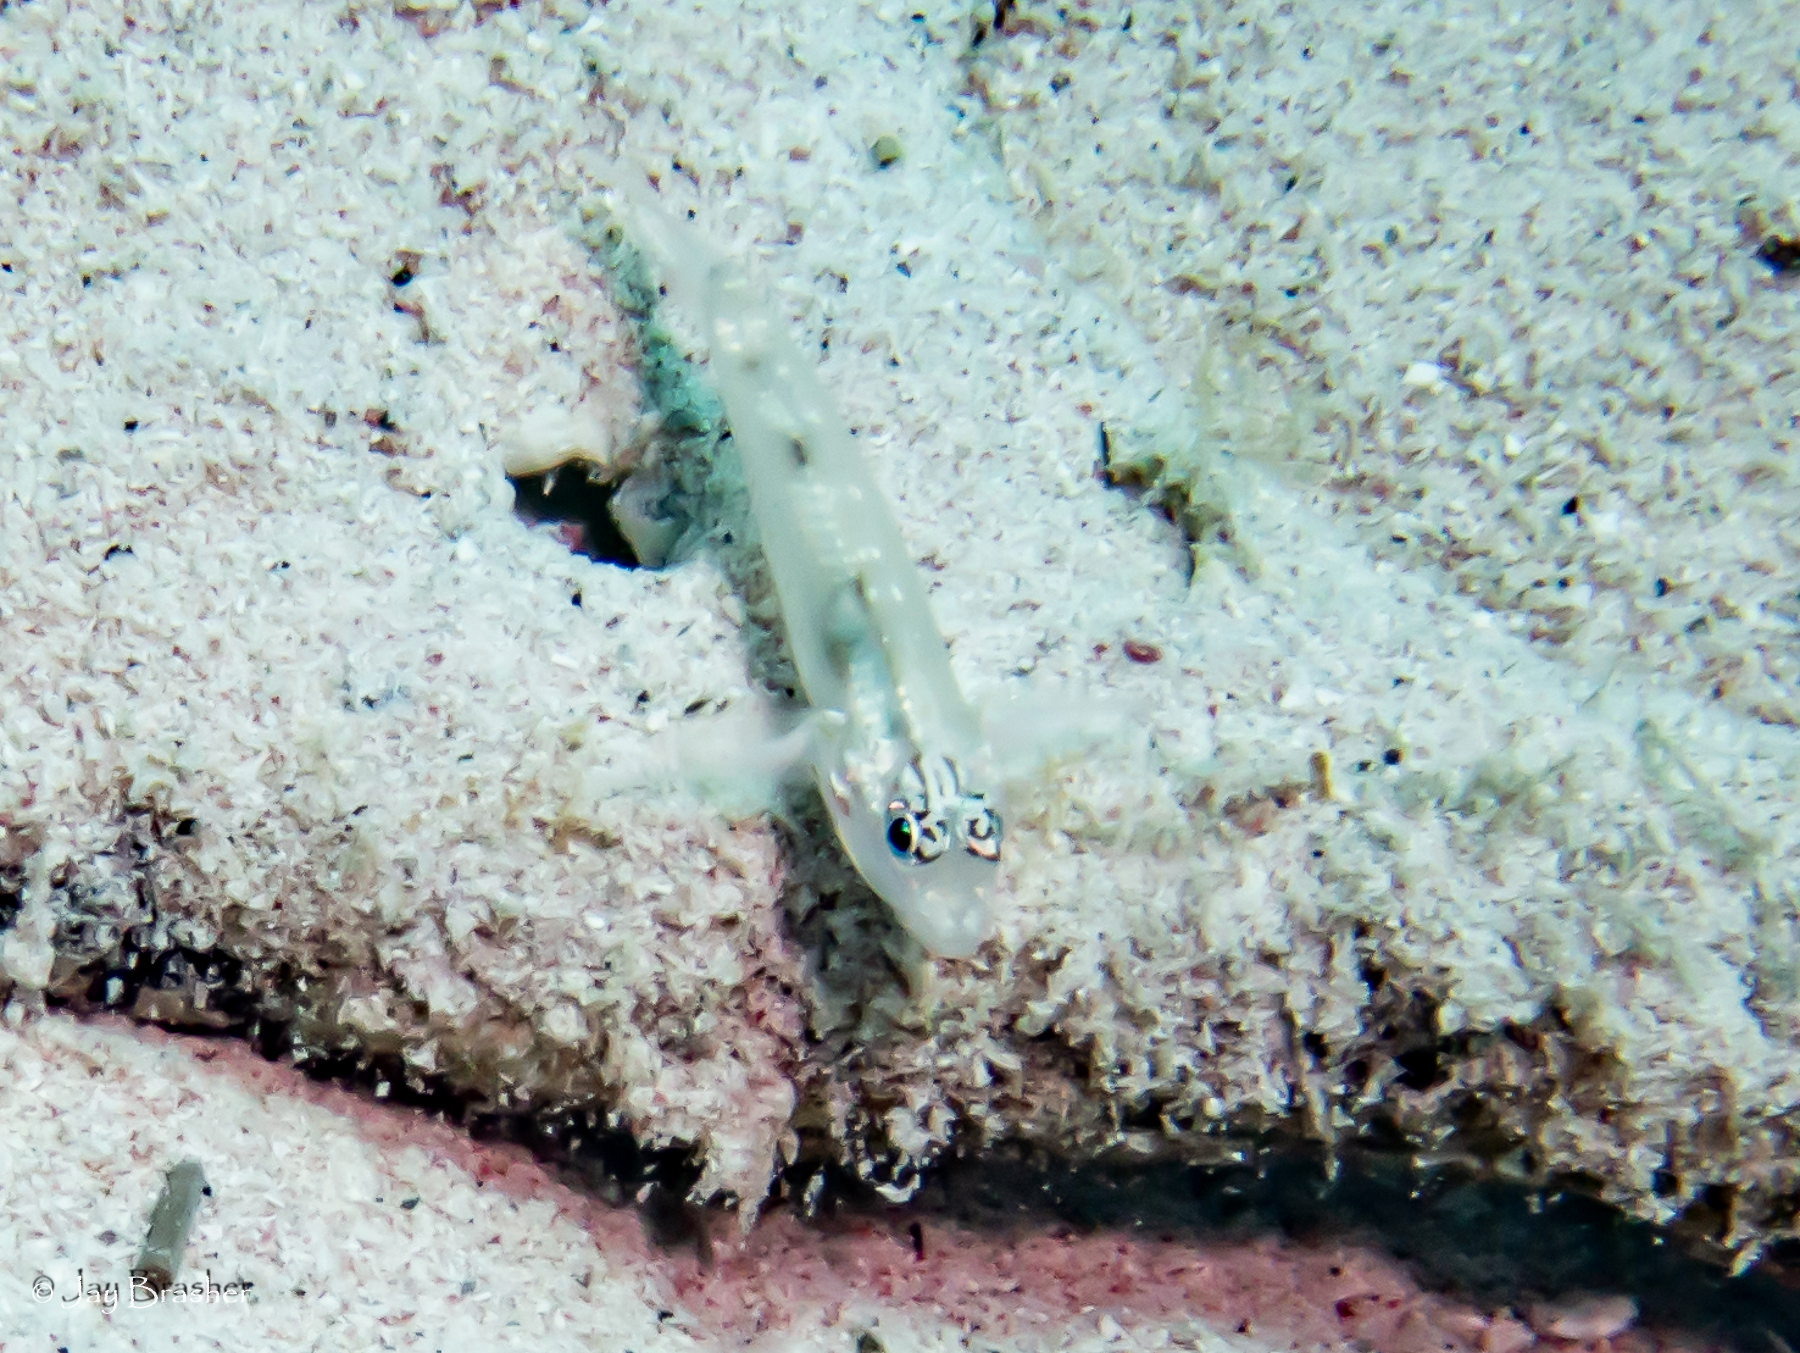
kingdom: Animalia
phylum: Chordata
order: Perciformes
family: Gobiidae
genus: Coryphopterus
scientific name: Coryphopterus venezuelae
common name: Sand-canyon goby
